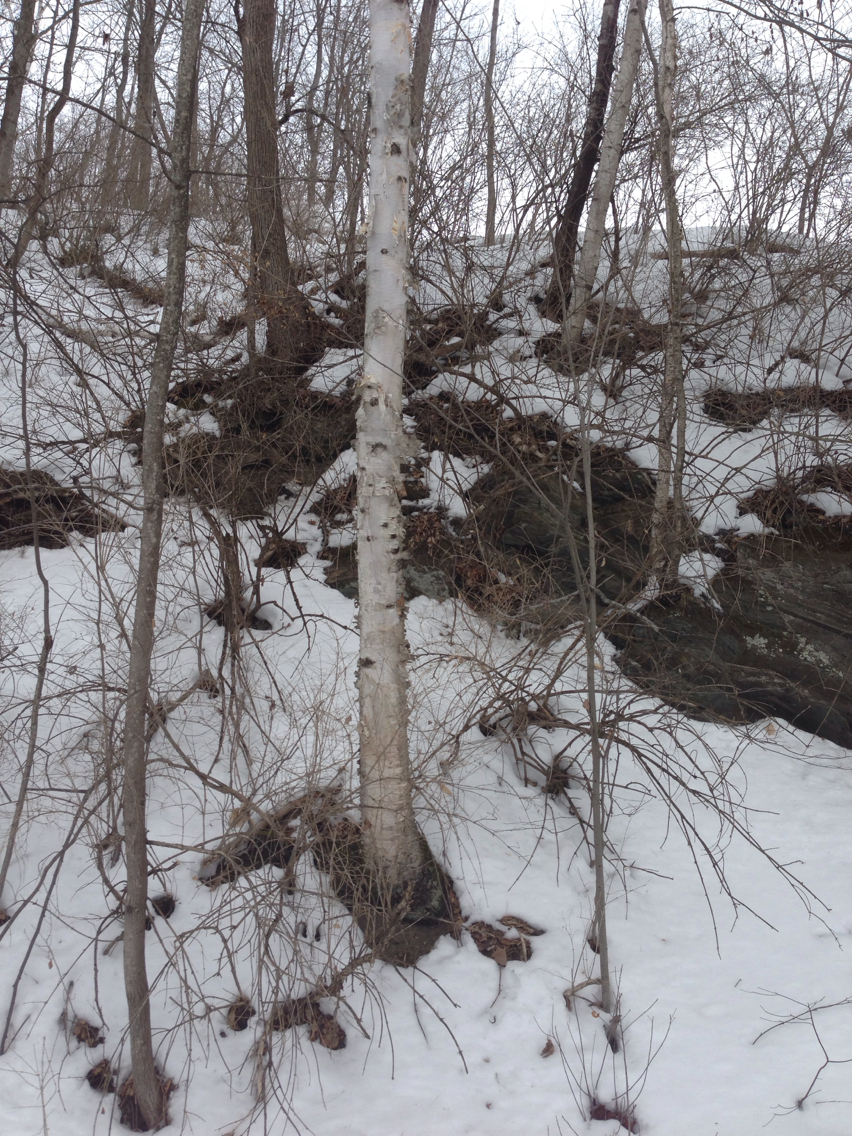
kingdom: Plantae
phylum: Tracheophyta
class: Magnoliopsida
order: Fagales
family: Betulaceae
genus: Betula
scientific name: Betula papyrifera
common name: Paper birch
